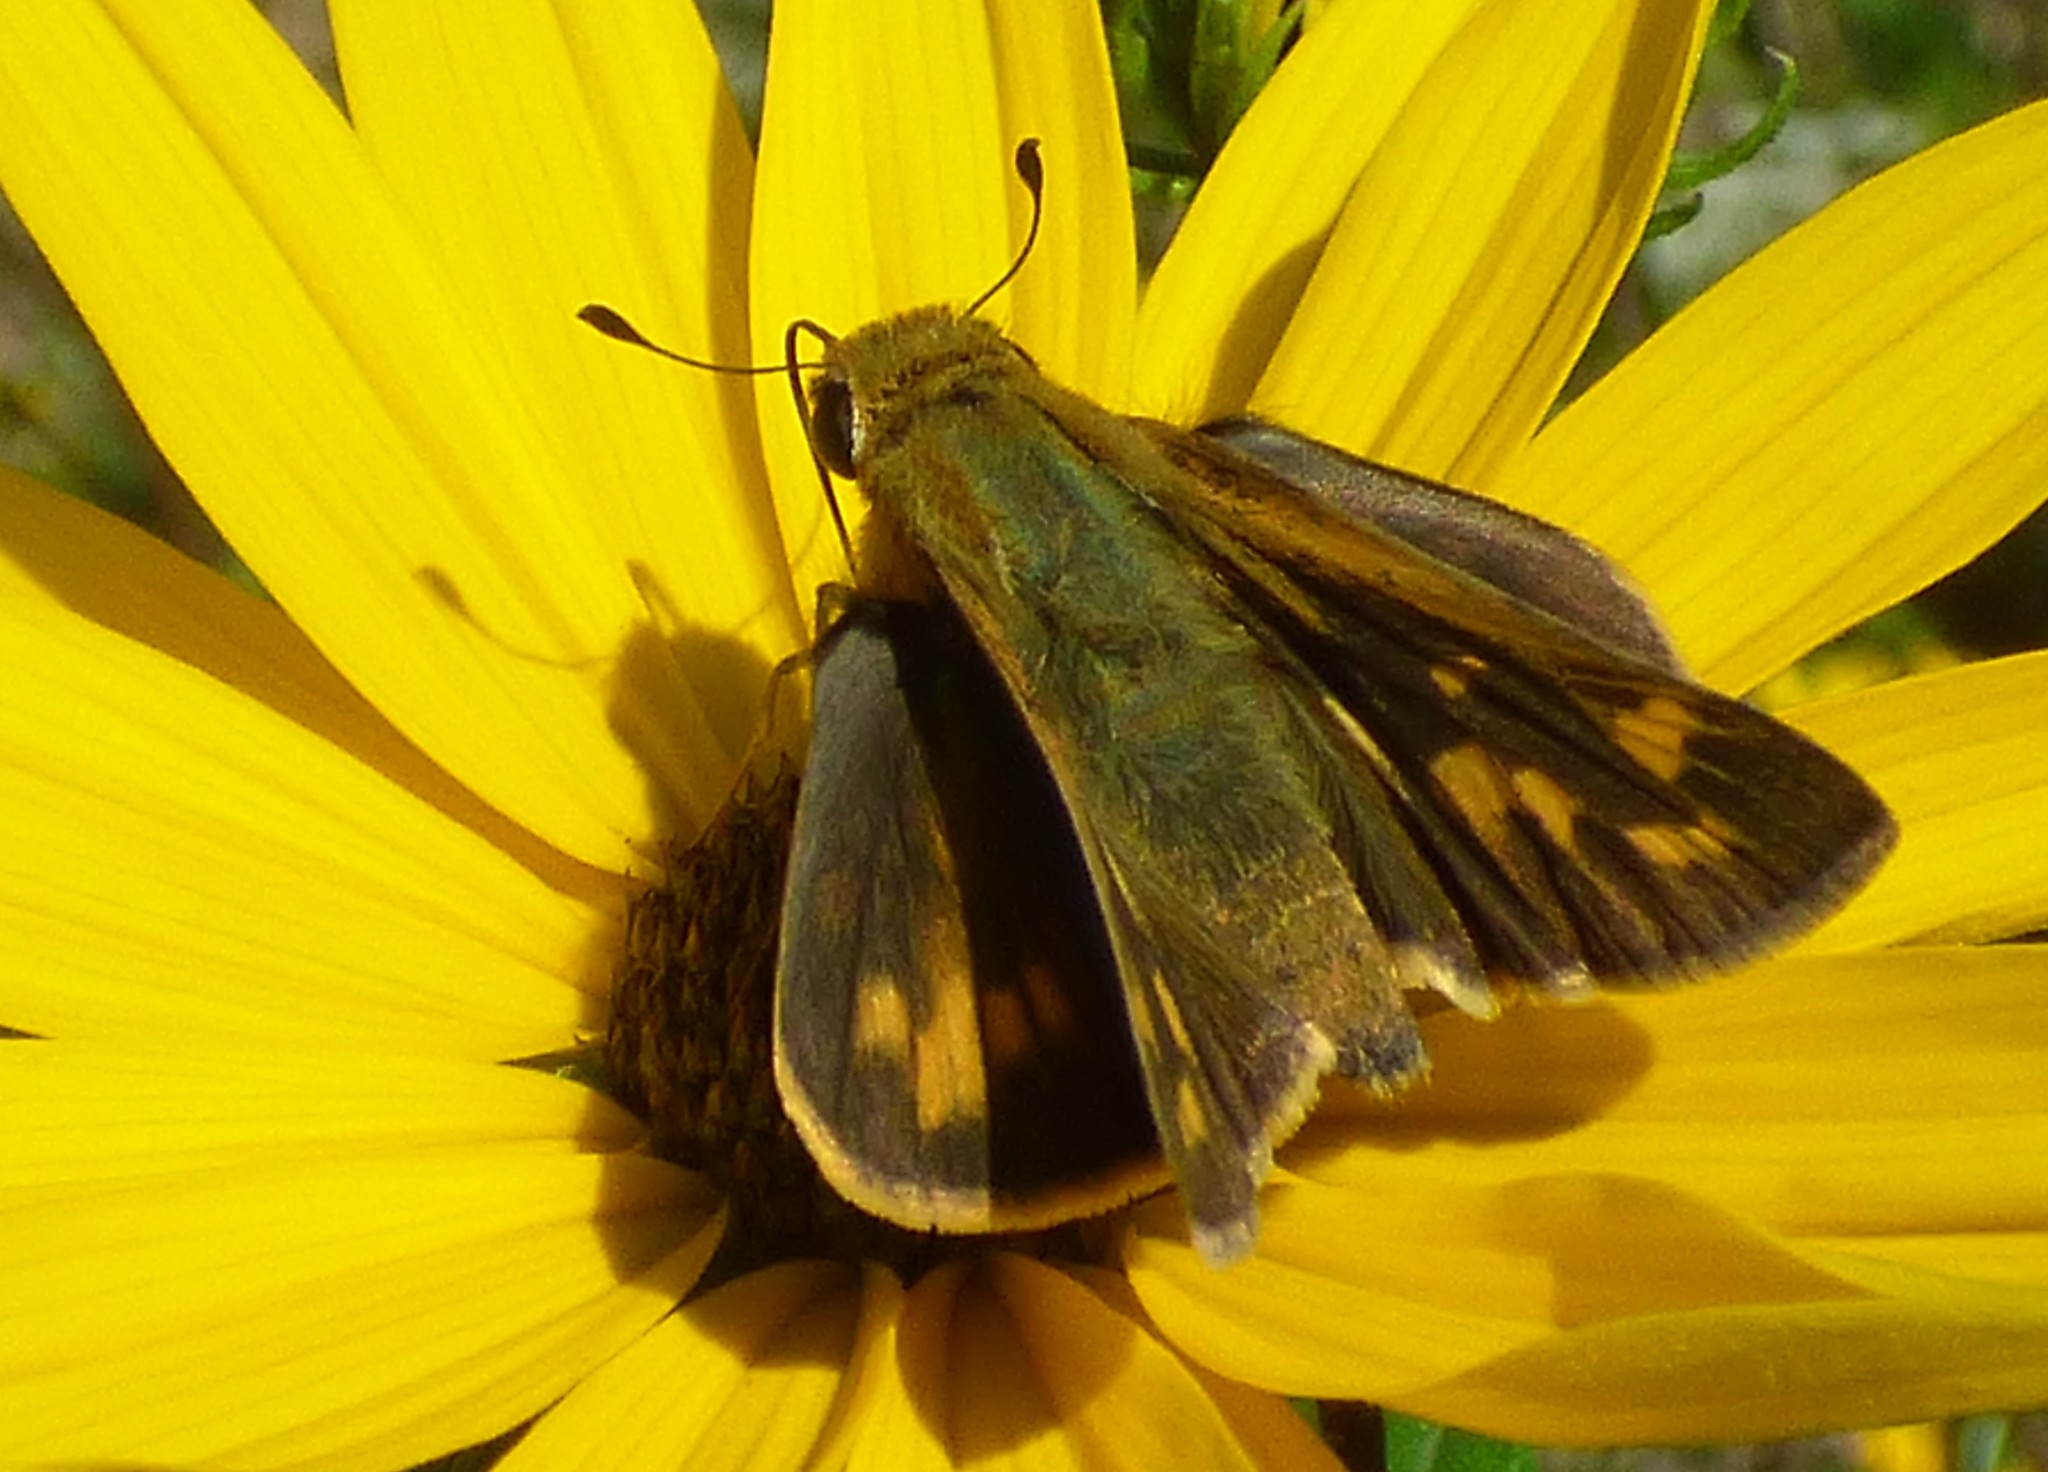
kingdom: Animalia
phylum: Arthropoda
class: Insecta
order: Lepidoptera
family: Hesperiidae
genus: Hylephila
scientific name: Hylephila phyleus
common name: Fiery skipper
